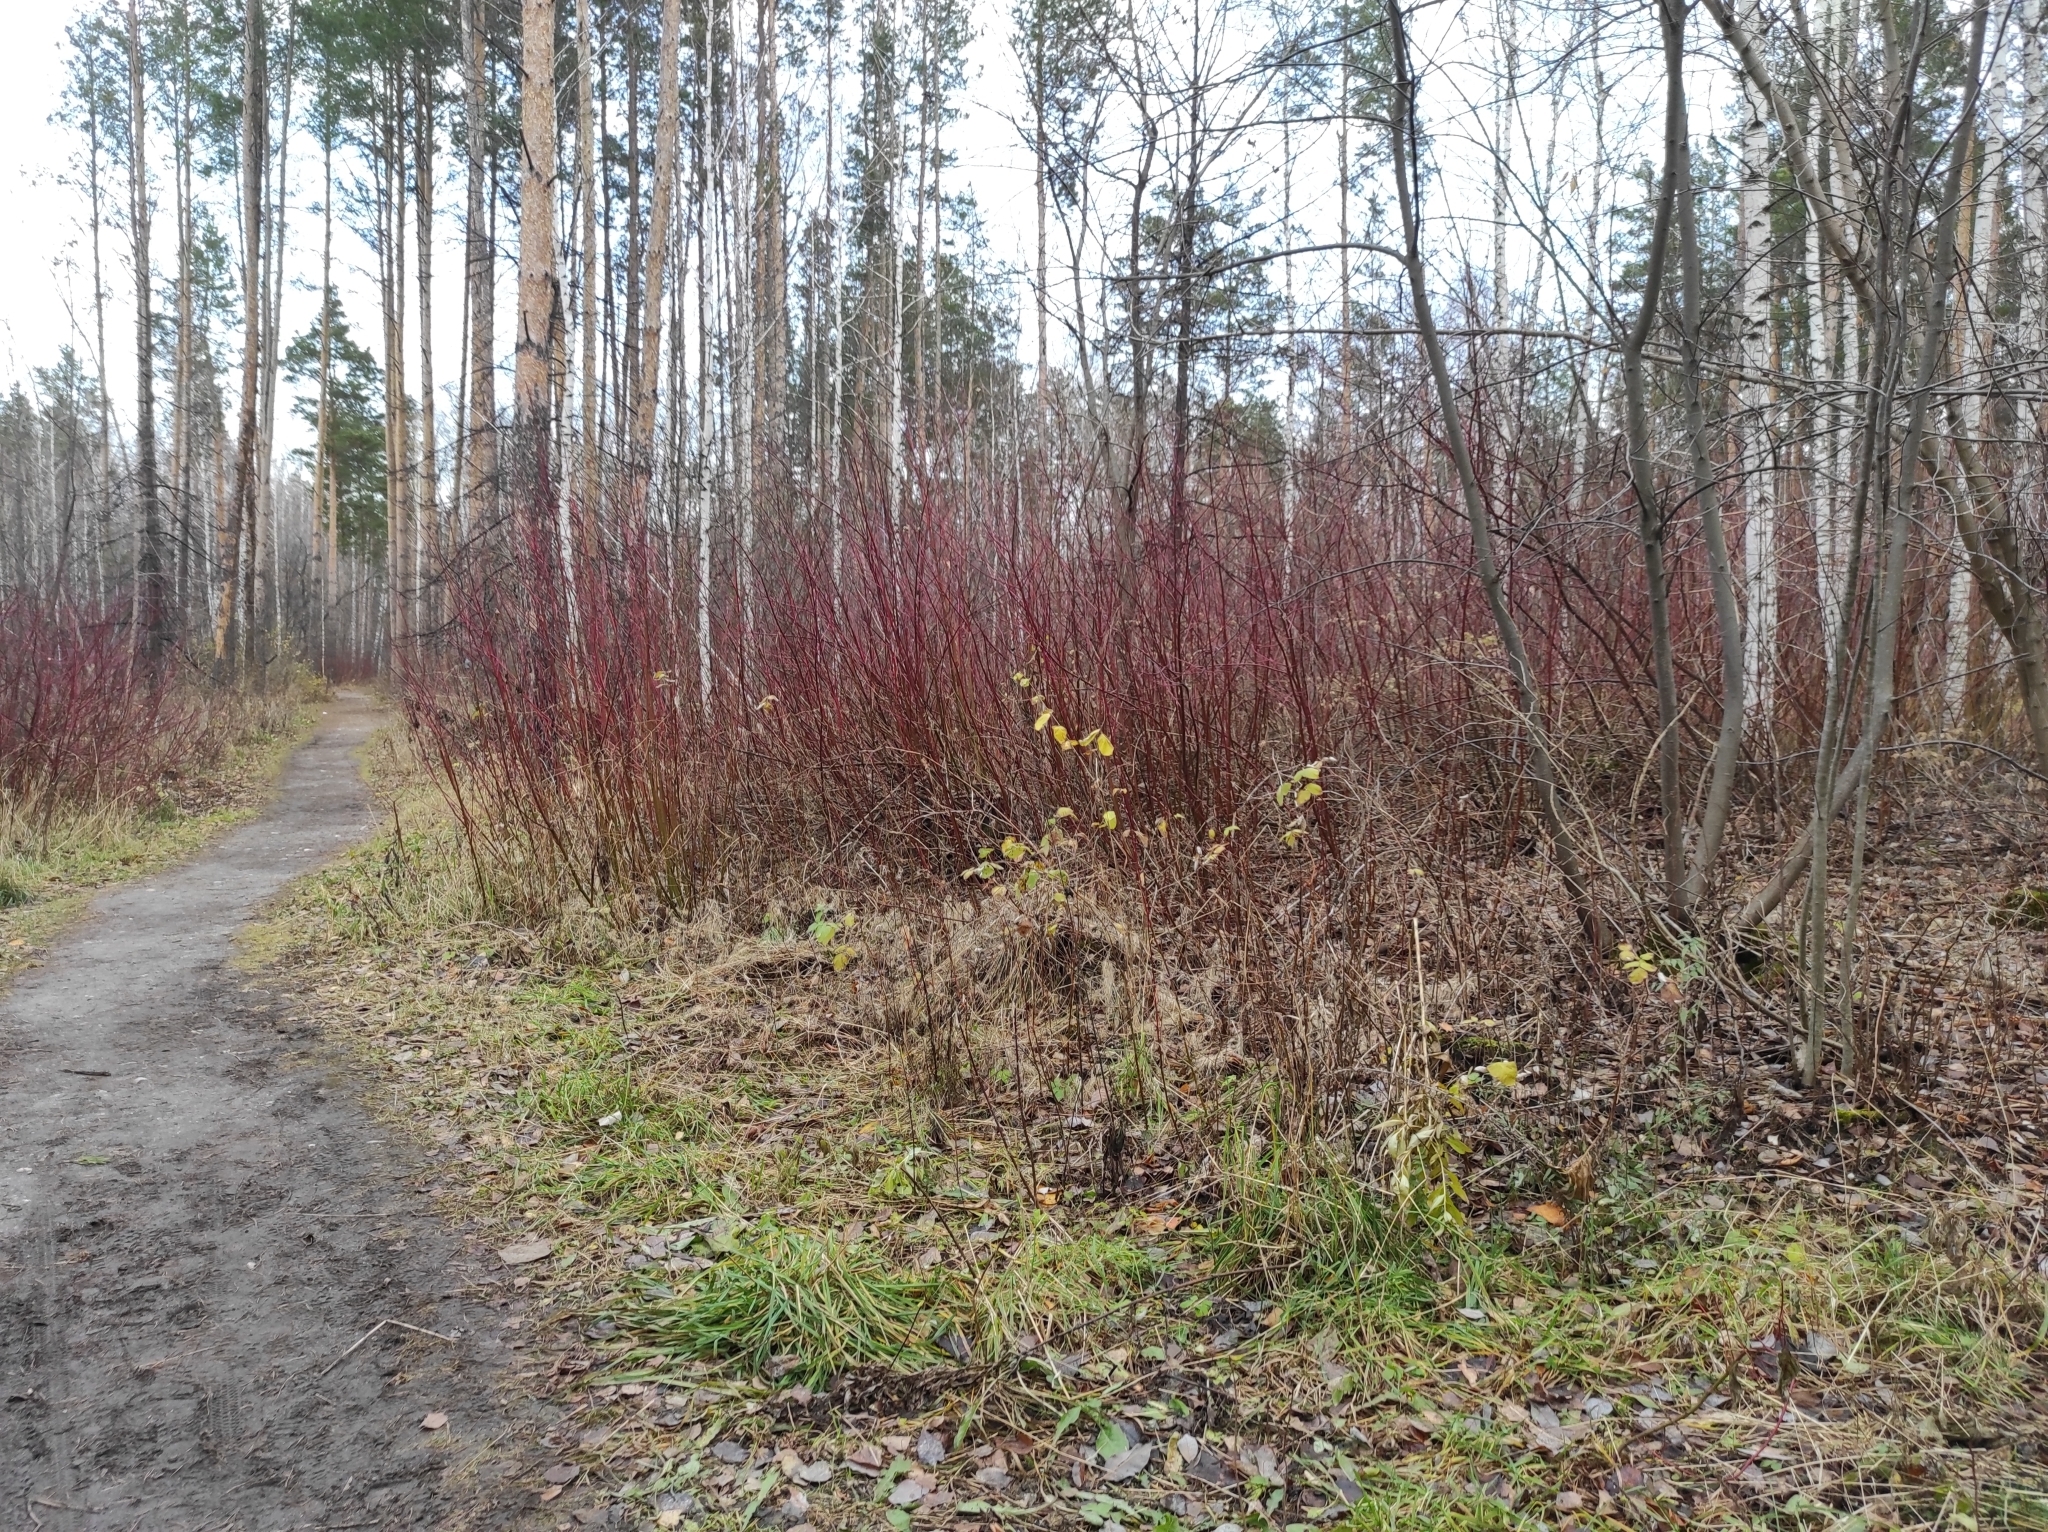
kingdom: Plantae
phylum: Tracheophyta
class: Magnoliopsida
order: Cornales
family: Cornaceae
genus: Cornus
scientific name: Cornus alba
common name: White dogwood
